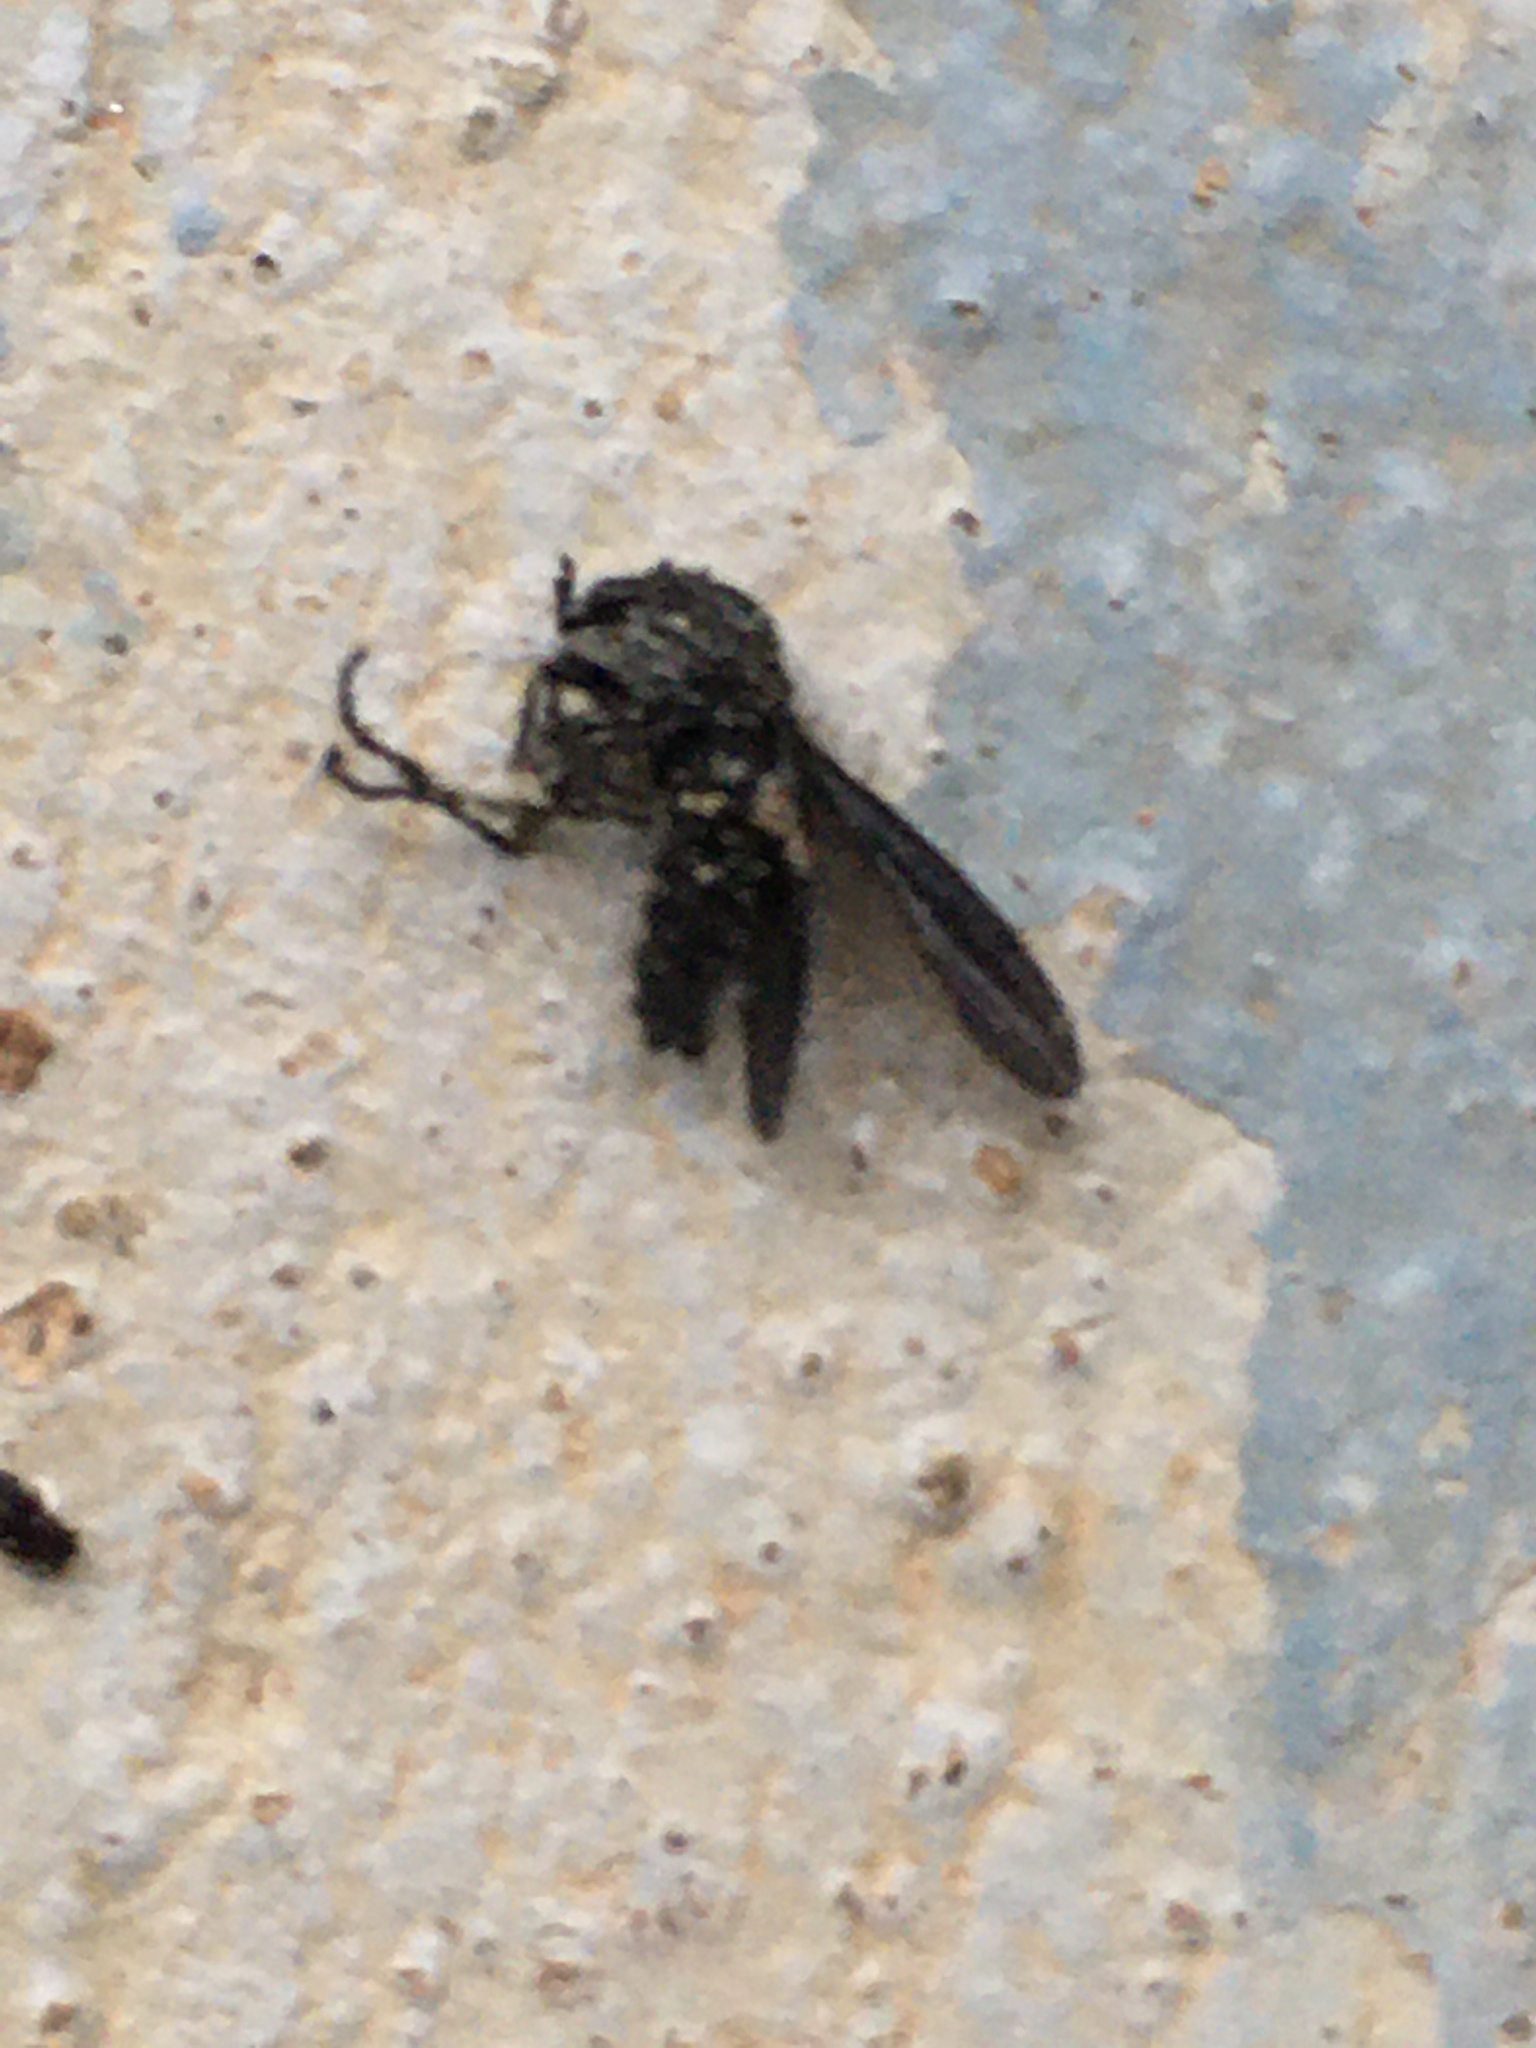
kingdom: Animalia
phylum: Arthropoda
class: Insecta
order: Diptera
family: Bibionidae
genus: Dilophus
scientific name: Dilophus orbatus
